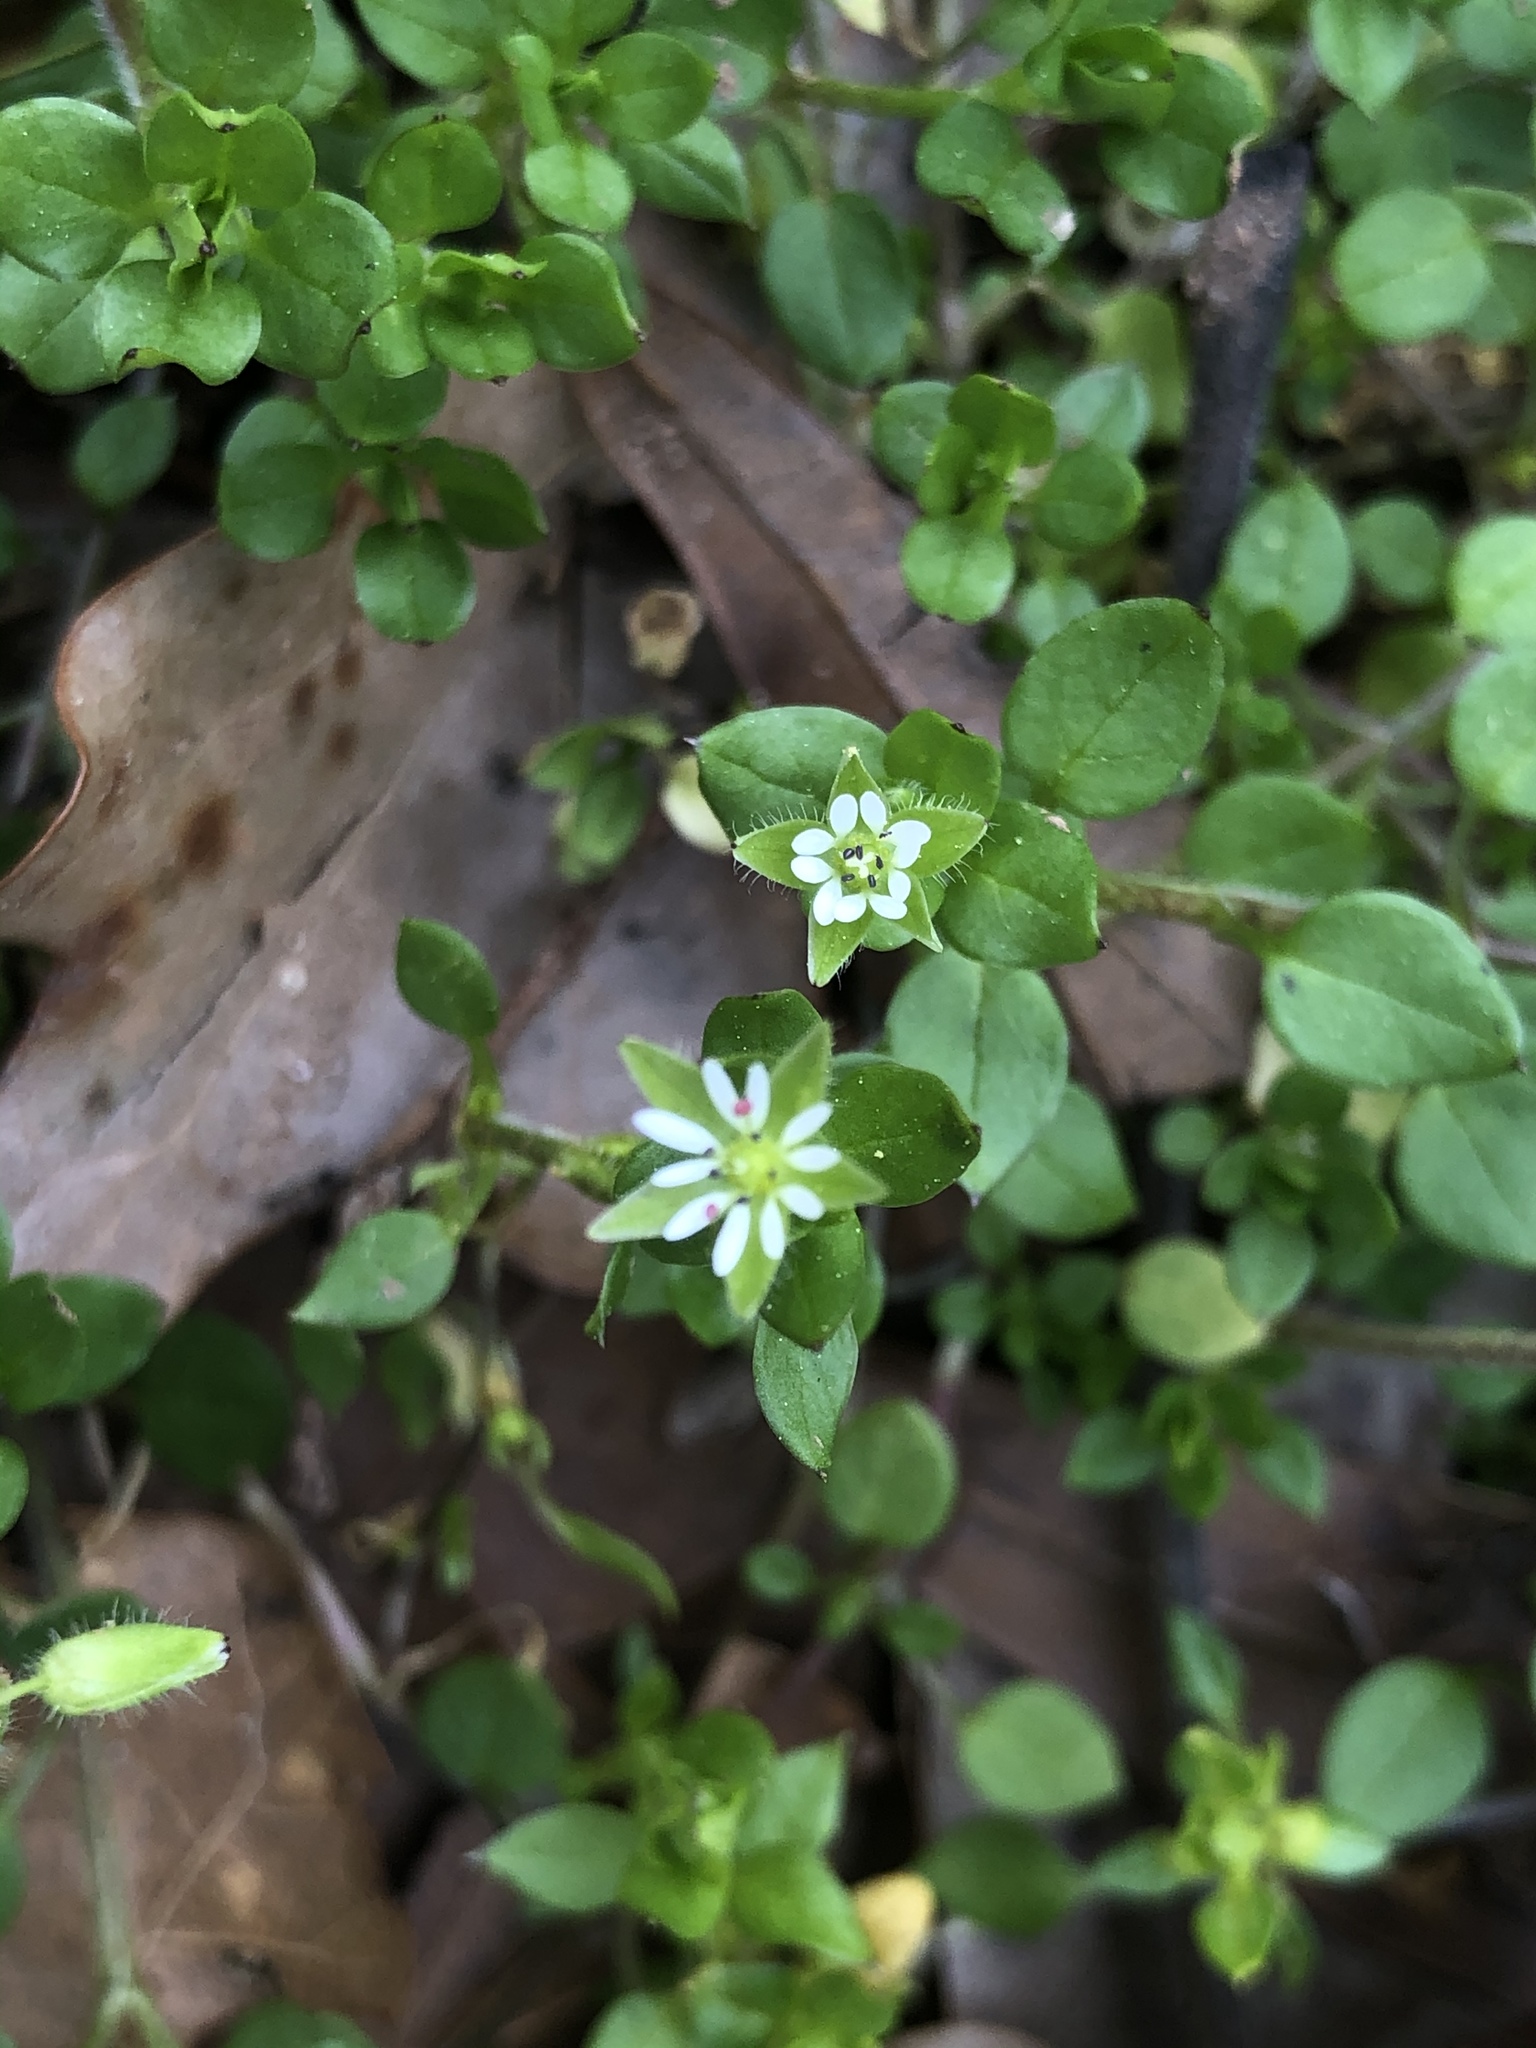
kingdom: Plantae
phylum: Tracheophyta
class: Magnoliopsida
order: Caryophyllales
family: Caryophyllaceae
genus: Stellaria
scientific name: Stellaria media
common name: Common chickweed
